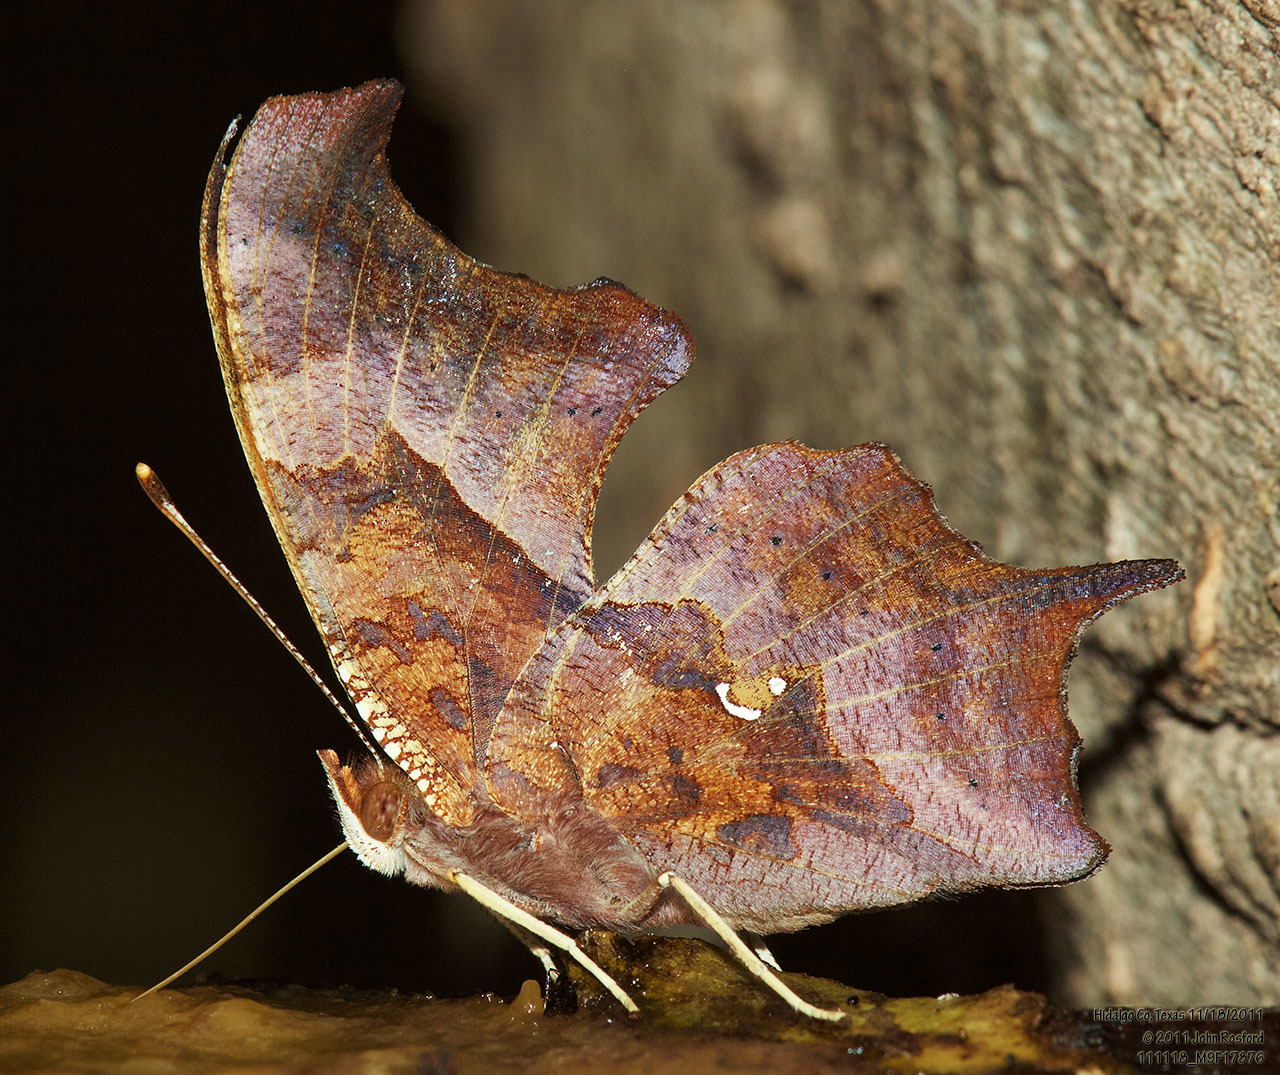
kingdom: Animalia
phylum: Arthropoda
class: Insecta
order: Lepidoptera
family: Nymphalidae
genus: Polygonia
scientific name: Polygonia interrogationis
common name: Question mark
